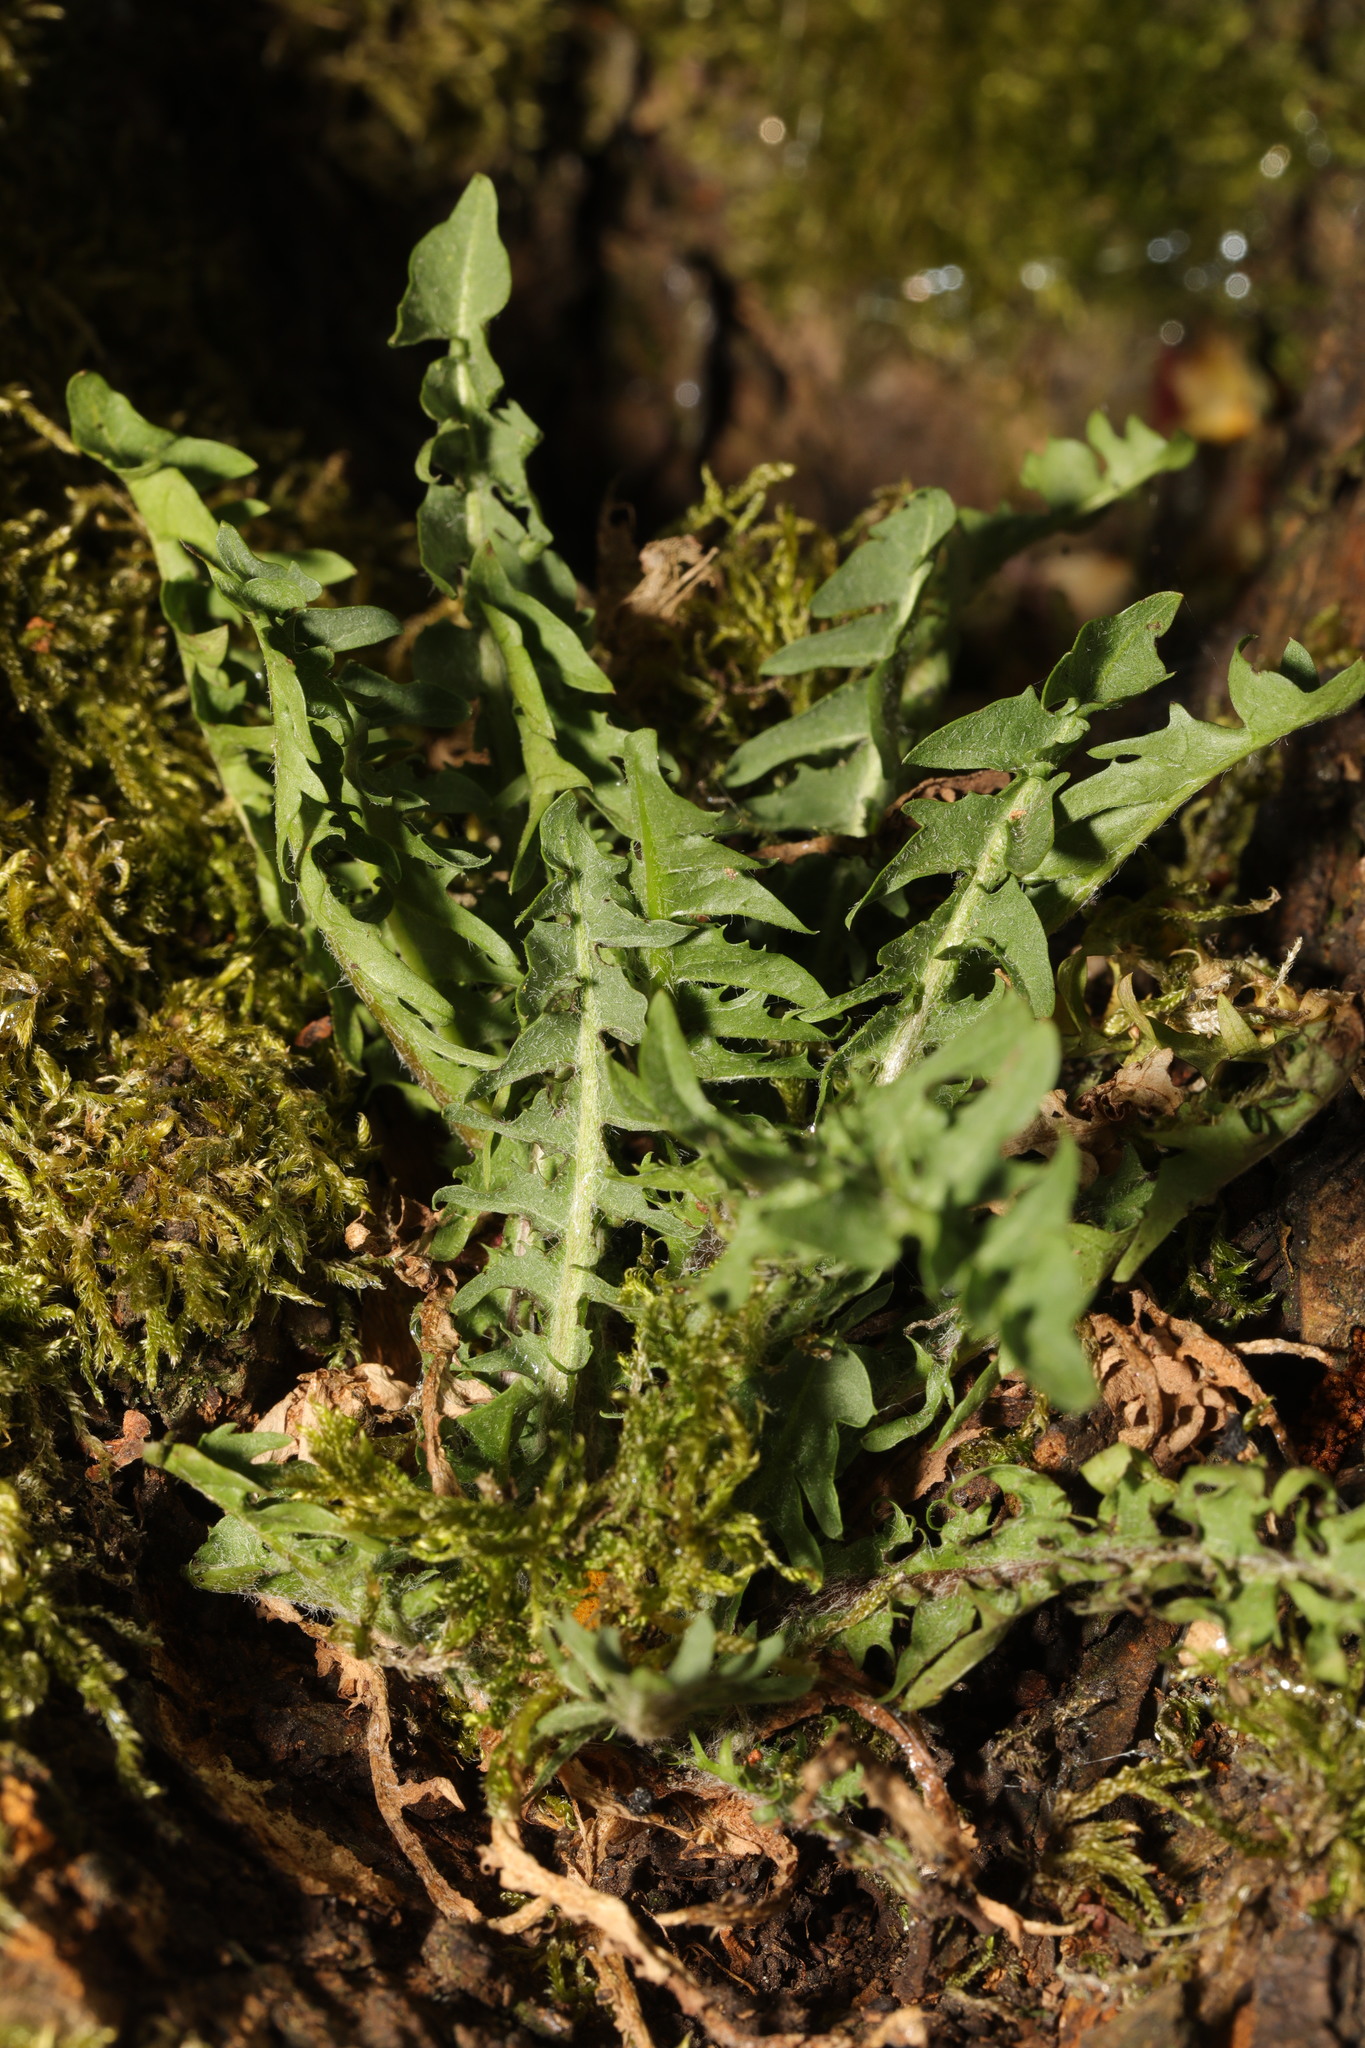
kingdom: Plantae
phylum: Tracheophyta
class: Magnoliopsida
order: Asterales
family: Asteraceae
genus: Taraxacum
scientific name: Taraxacum officinale
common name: Common dandelion
